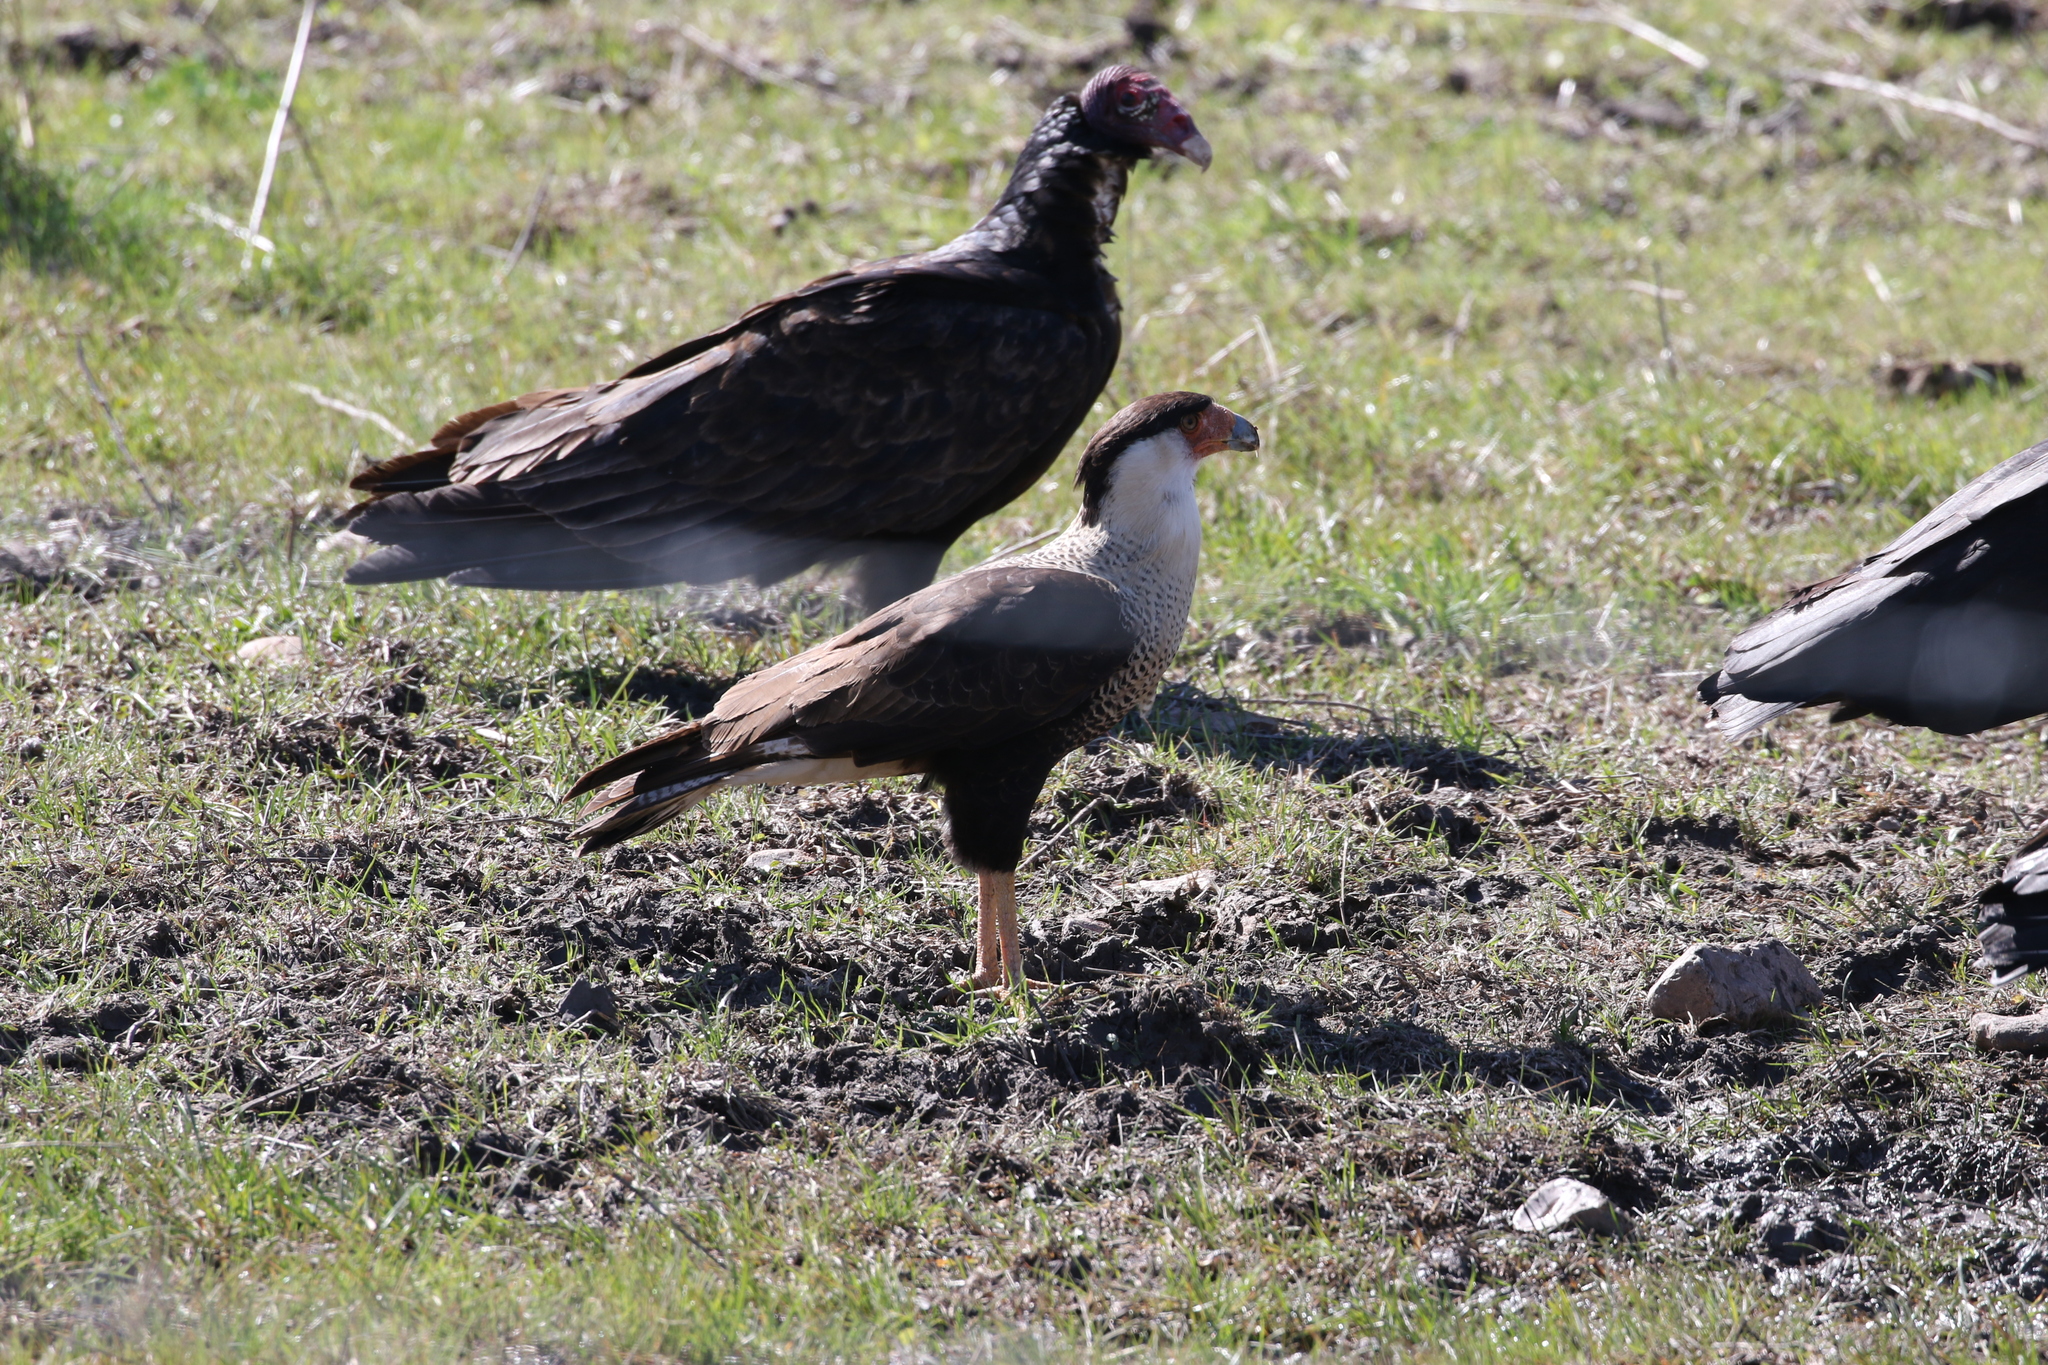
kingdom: Animalia
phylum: Chordata
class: Aves
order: Accipitriformes
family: Cathartidae
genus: Cathartes
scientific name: Cathartes aura
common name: Turkey vulture
